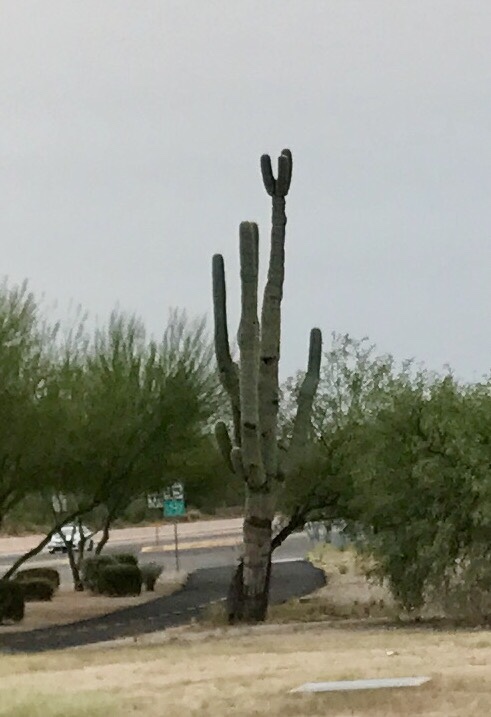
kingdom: Plantae
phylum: Tracheophyta
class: Magnoliopsida
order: Caryophyllales
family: Cactaceae
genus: Carnegiea
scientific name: Carnegiea gigantea
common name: Saguaro
